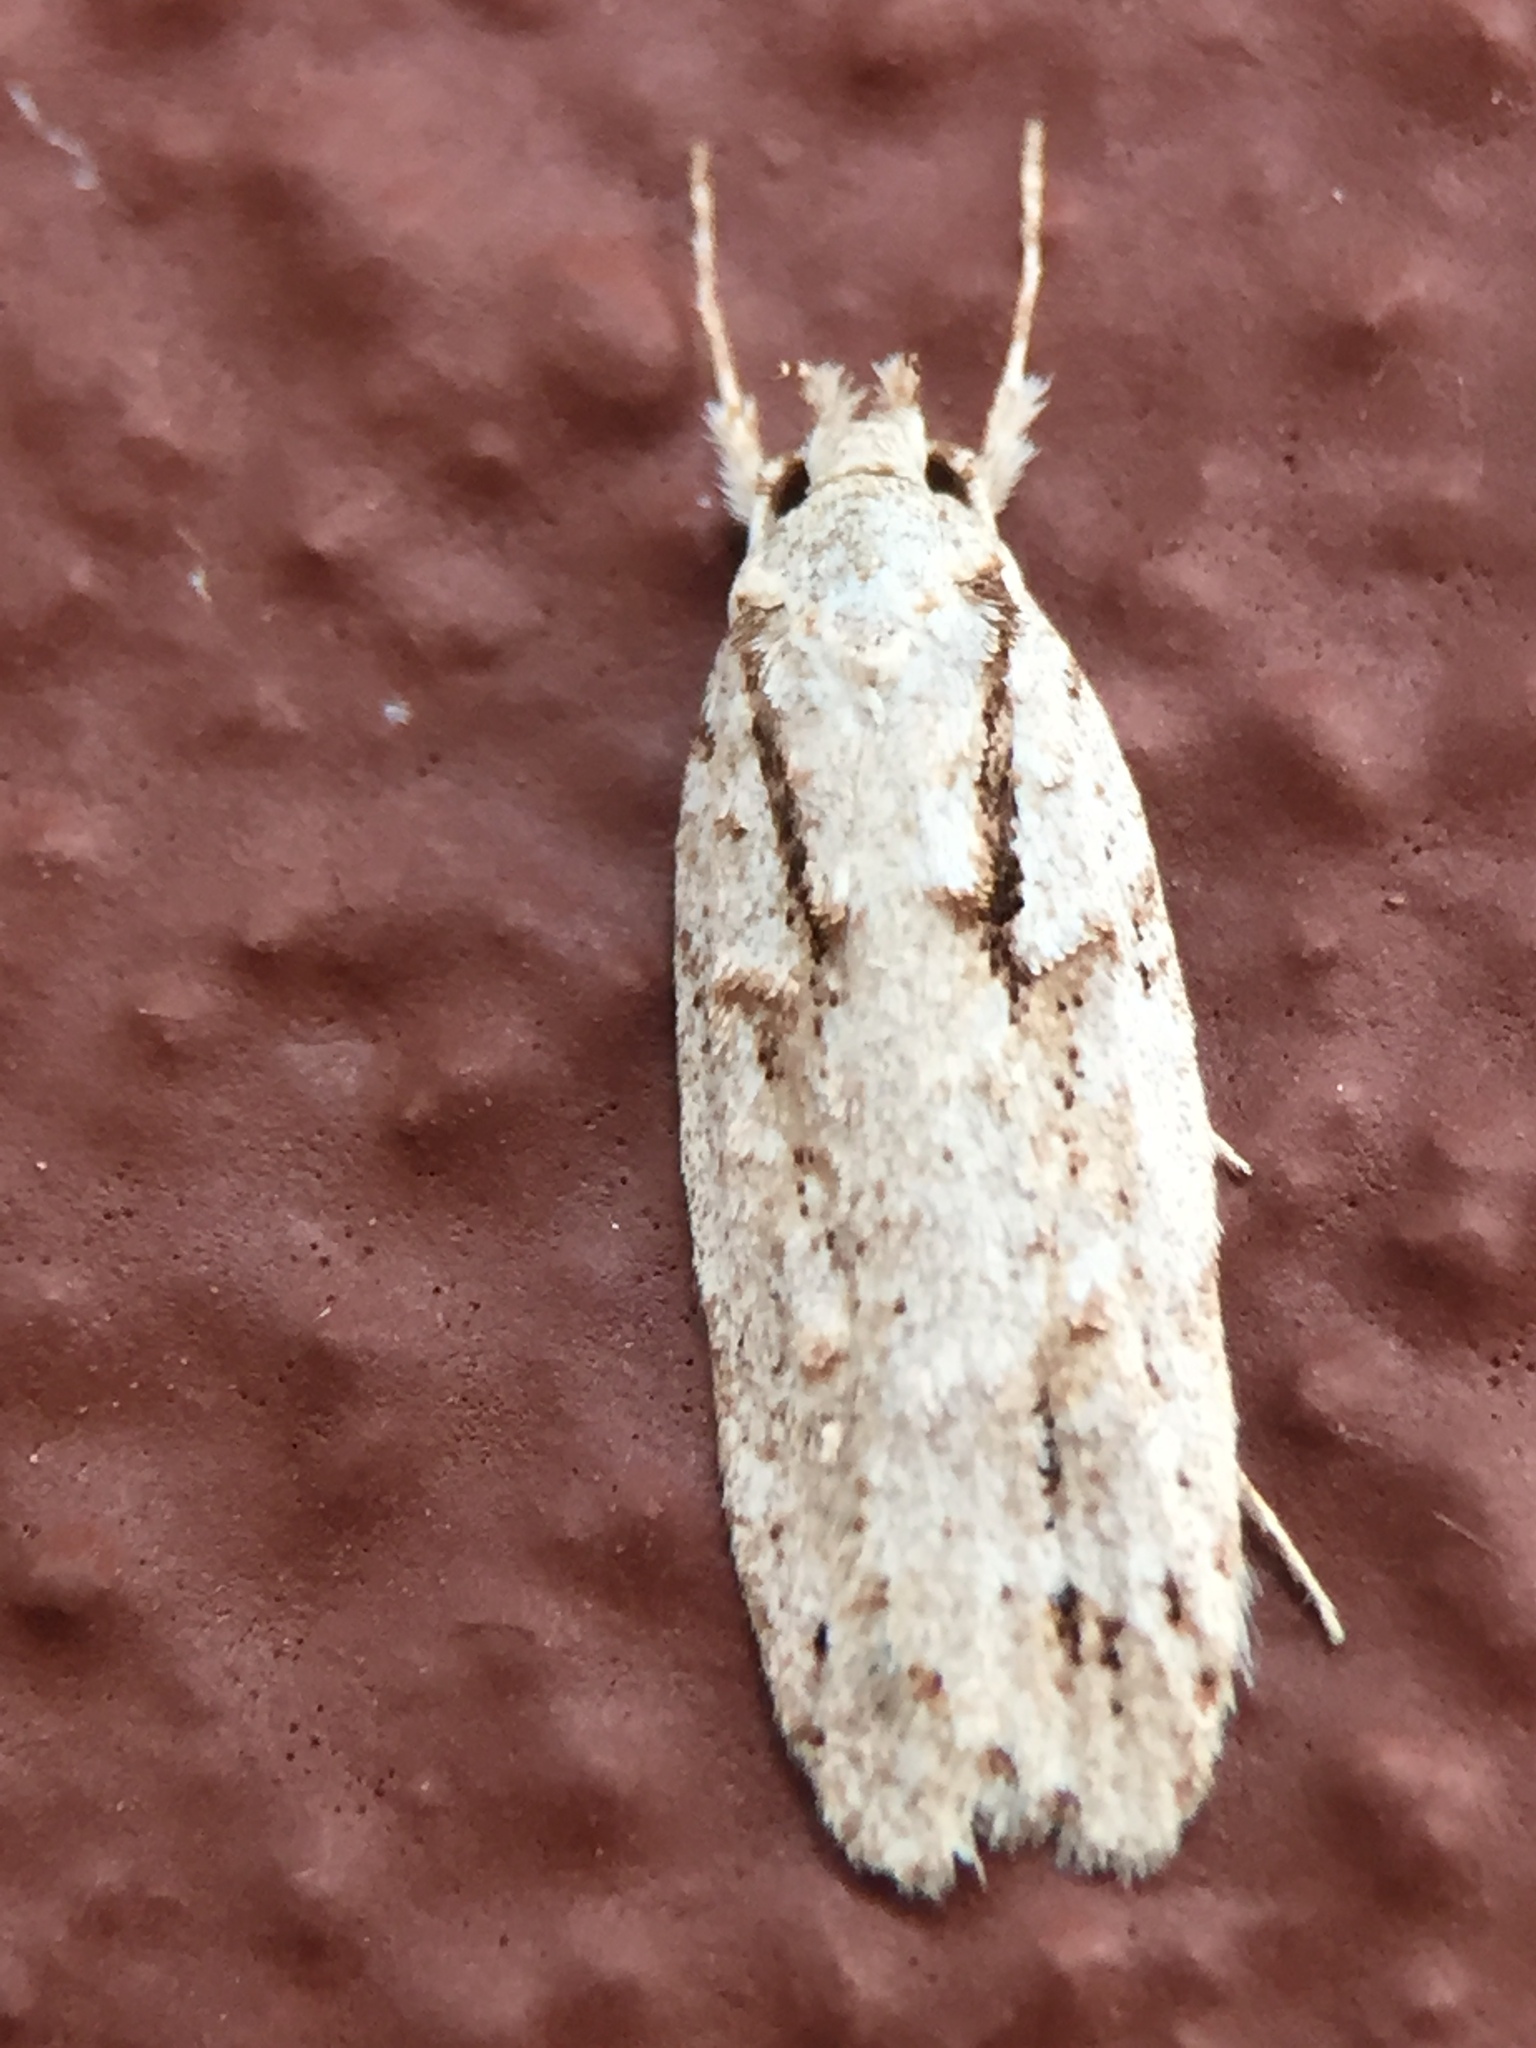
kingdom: Animalia
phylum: Arthropoda
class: Insecta
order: Lepidoptera
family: Oecophoridae
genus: Izatha
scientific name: Izatha attactella
